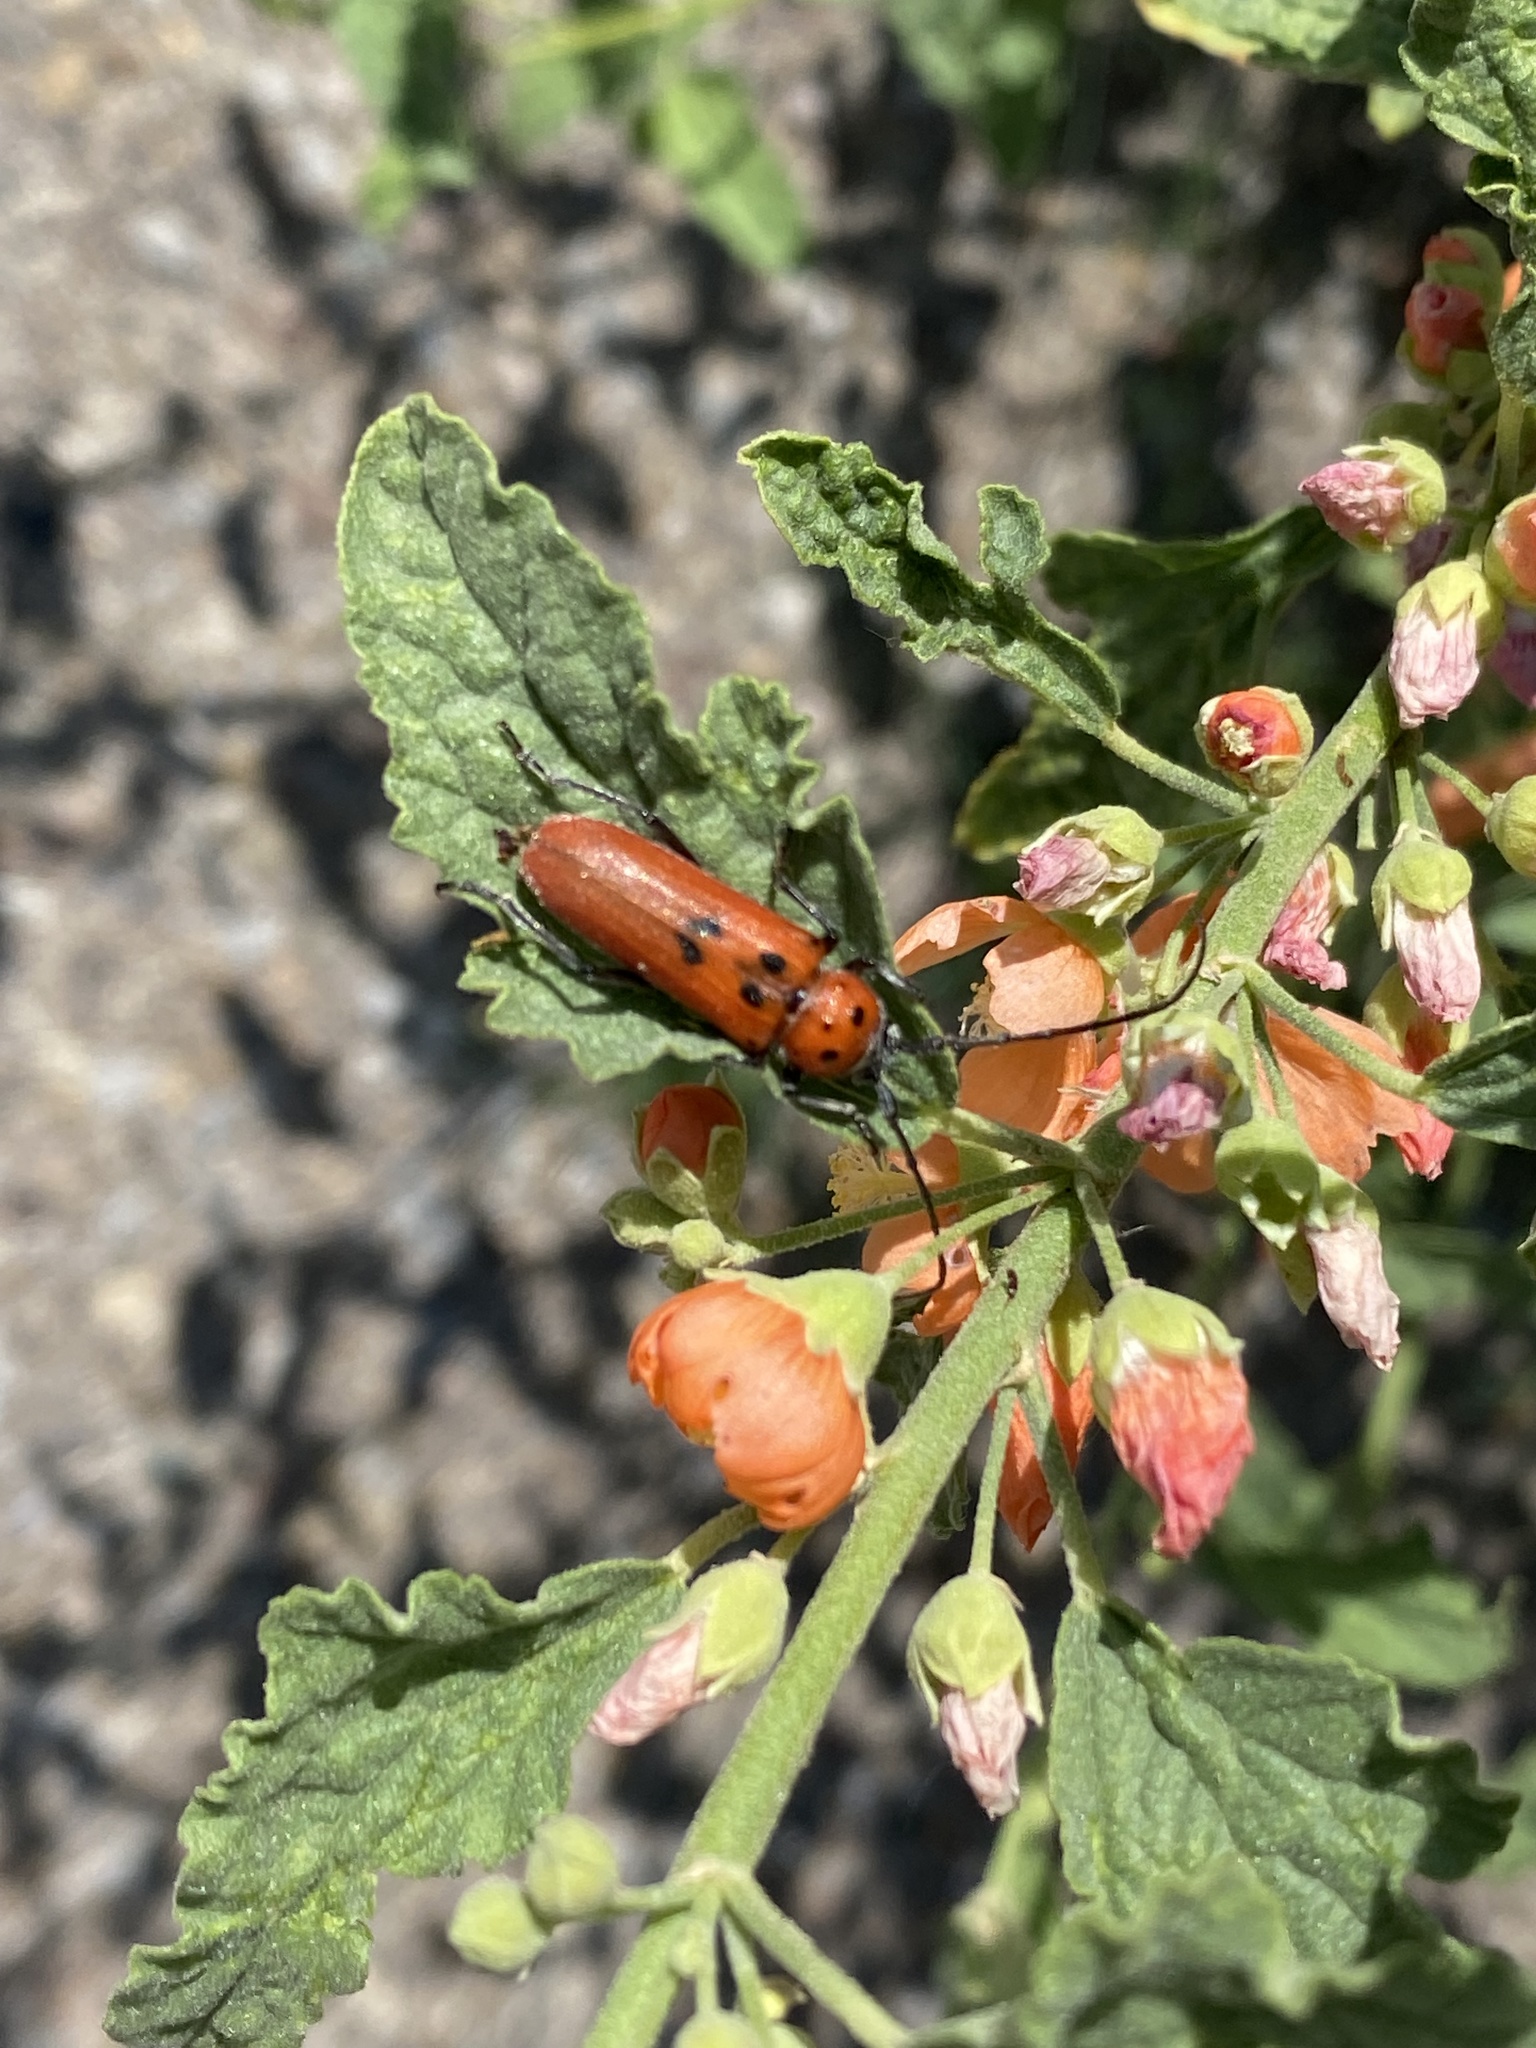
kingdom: Animalia
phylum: Arthropoda
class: Insecta
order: Coleoptera
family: Cerambycidae
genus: Tylosis
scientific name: Tylosis maculatus
